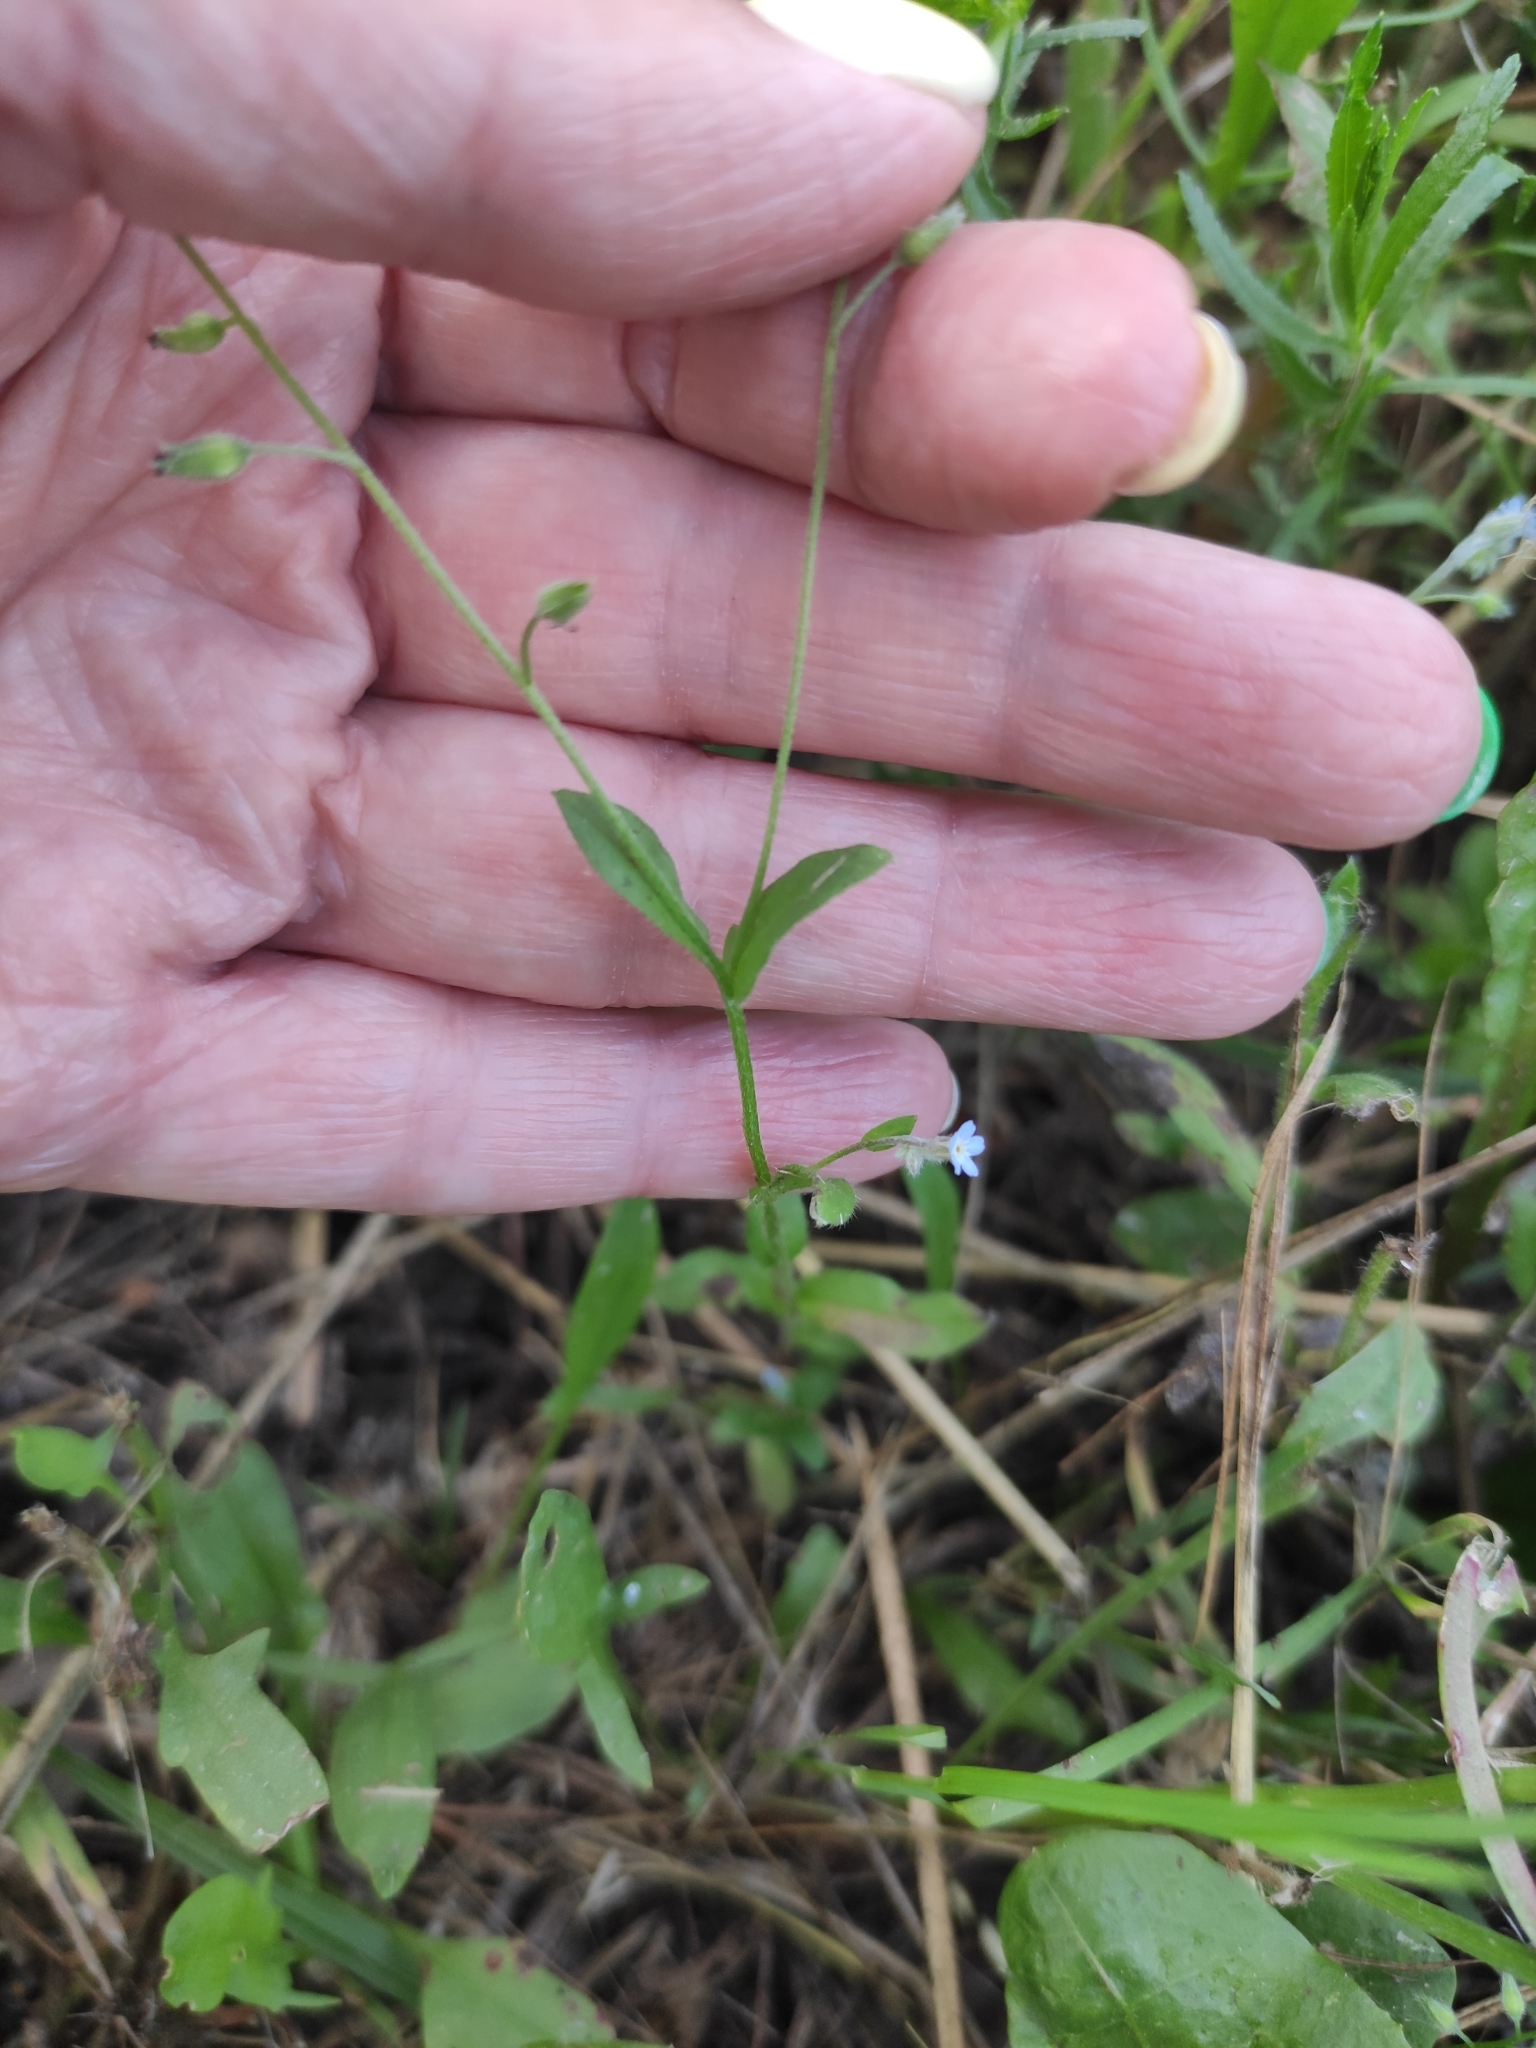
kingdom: Plantae
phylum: Tracheophyta
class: Magnoliopsida
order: Boraginales
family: Boraginaceae
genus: Myosotis
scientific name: Myosotis arvensis
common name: Field forget-me-not
